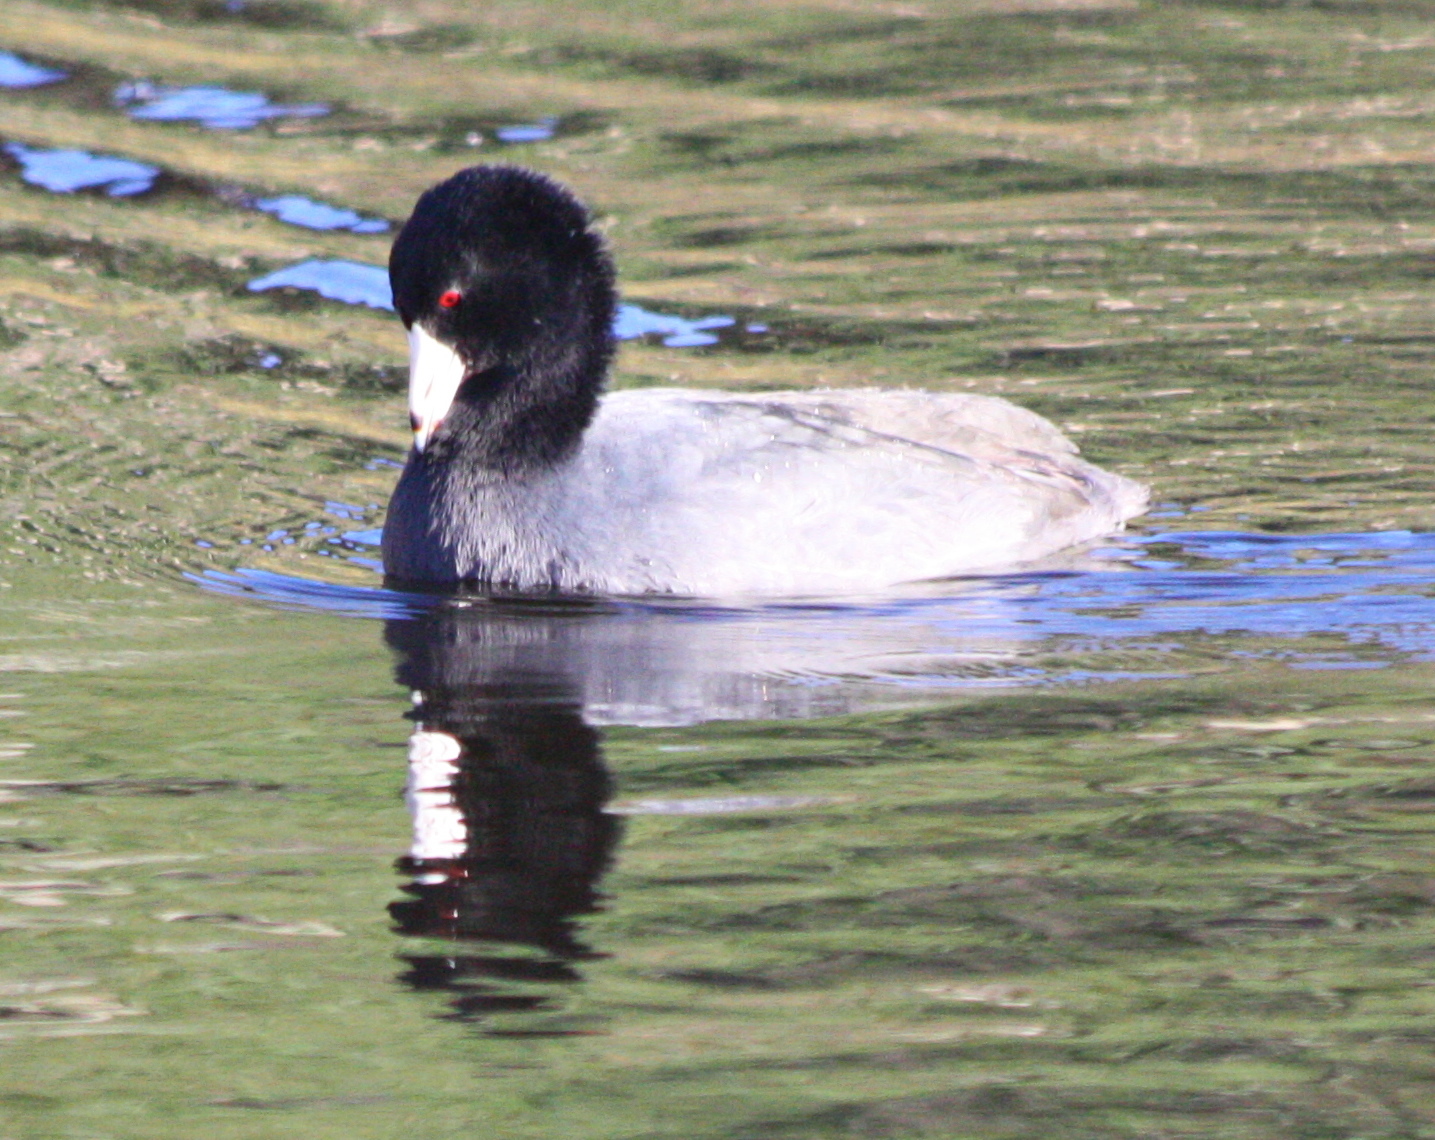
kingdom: Animalia
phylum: Chordata
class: Aves
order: Gruiformes
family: Rallidae
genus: Fulica
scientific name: Fulica americana
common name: American coot
